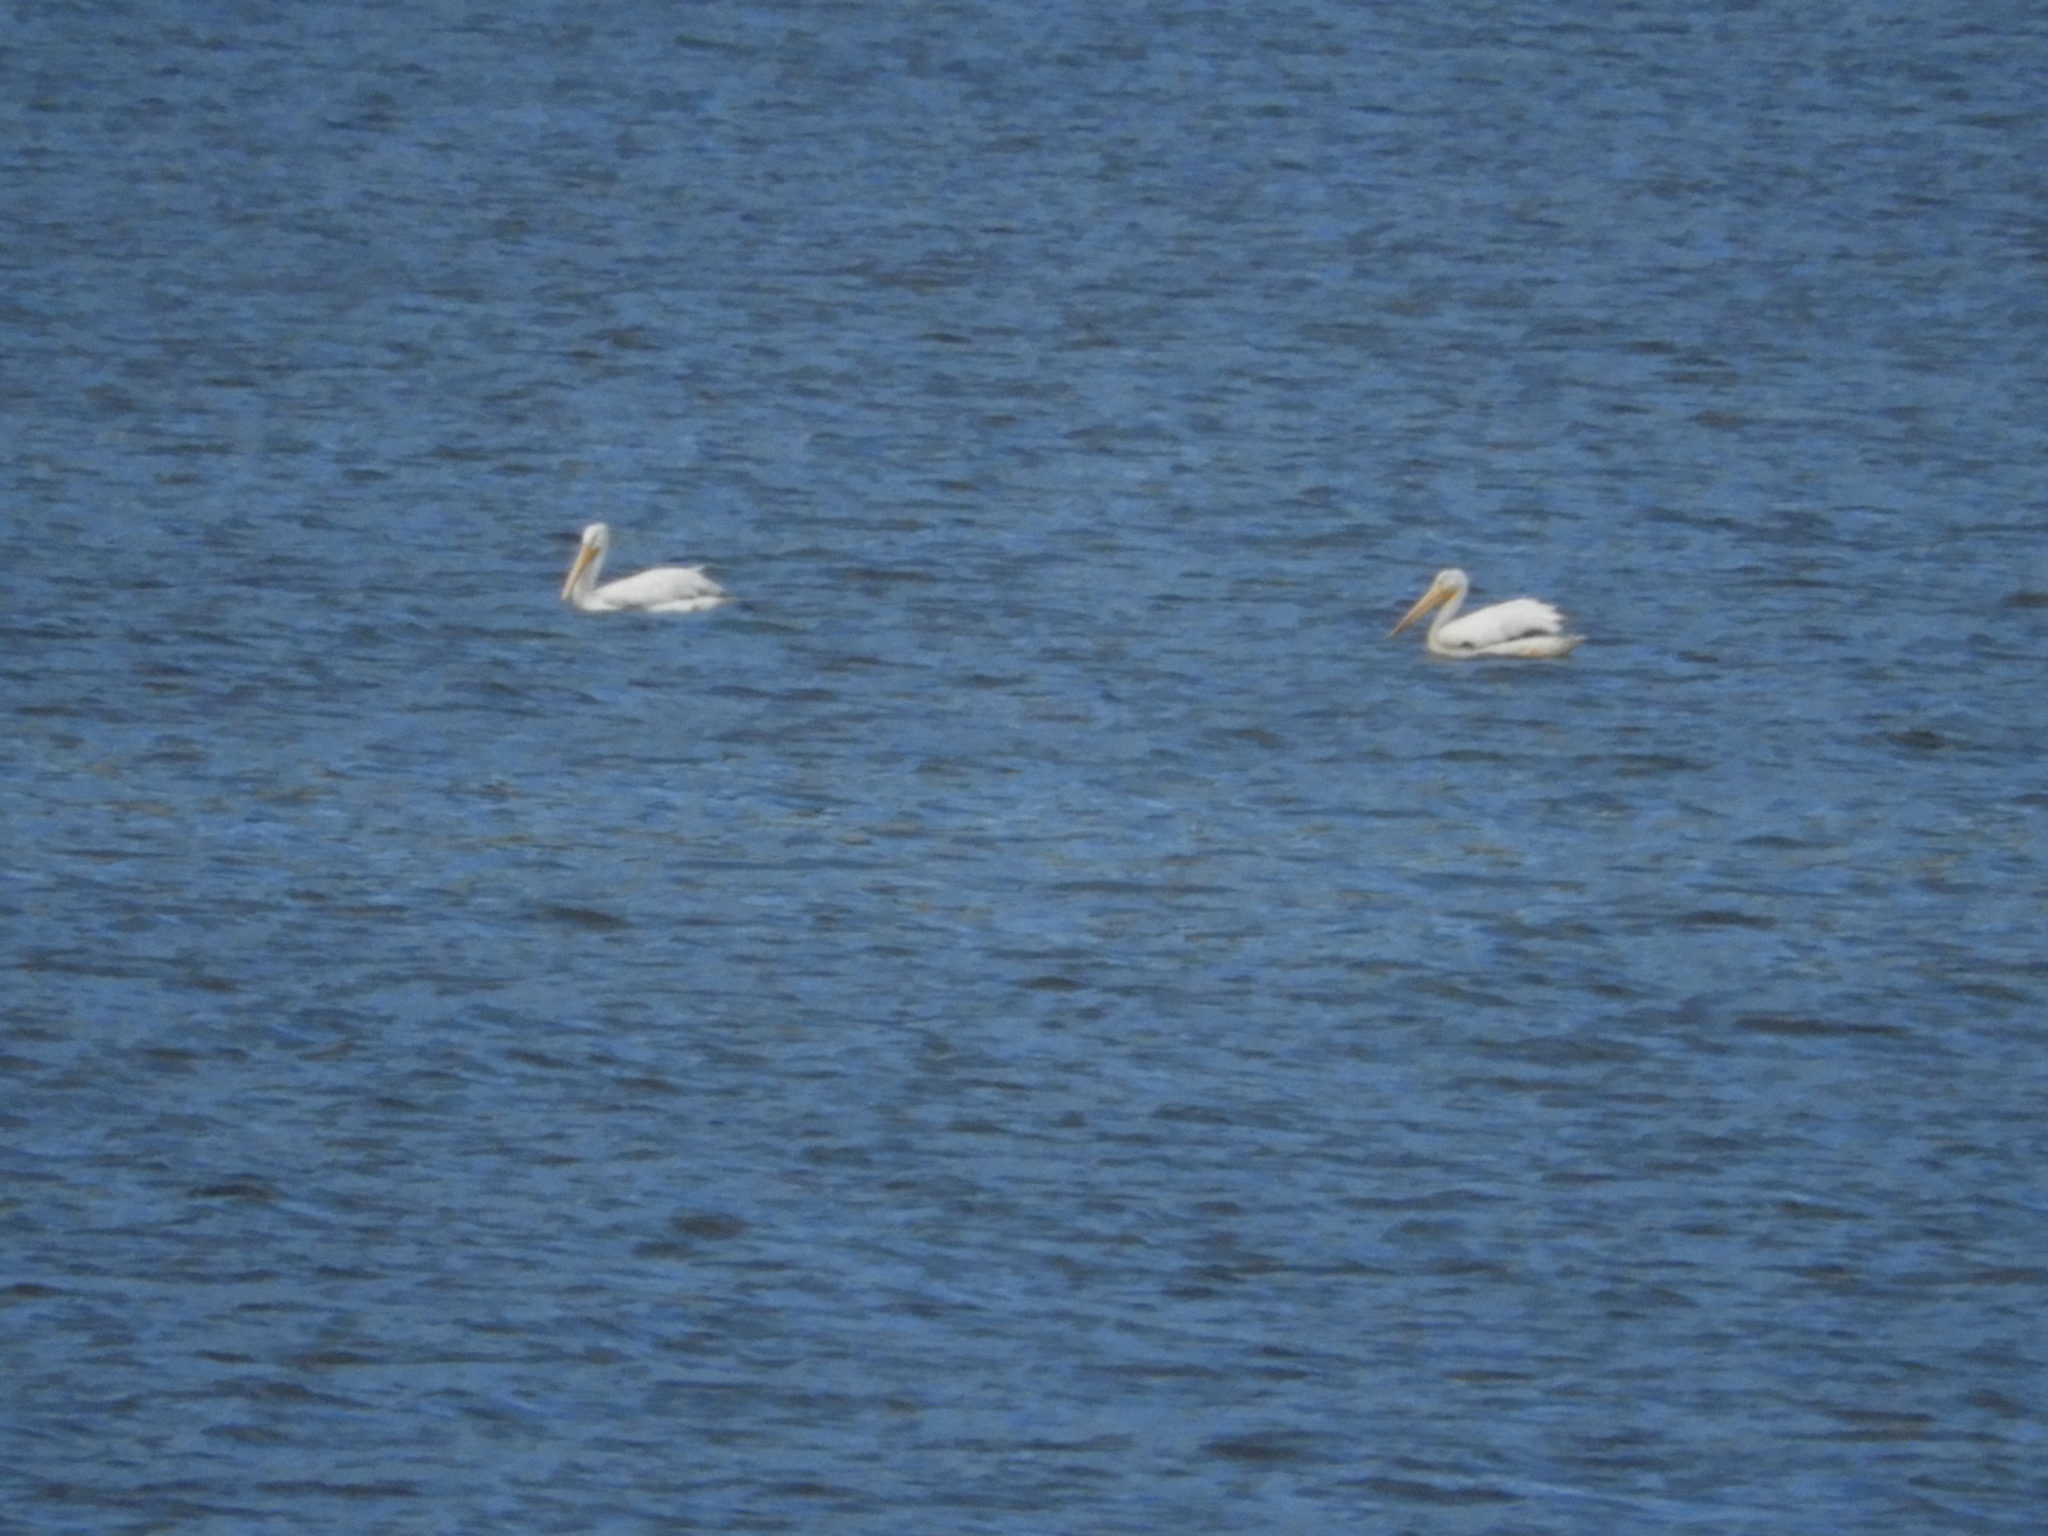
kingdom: Animalia
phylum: Chordata
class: Aves
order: Pelecaniformes
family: Pelecanidae
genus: Pelecanus
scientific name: Pelecanus erythrorhynchos
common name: American white pelican
